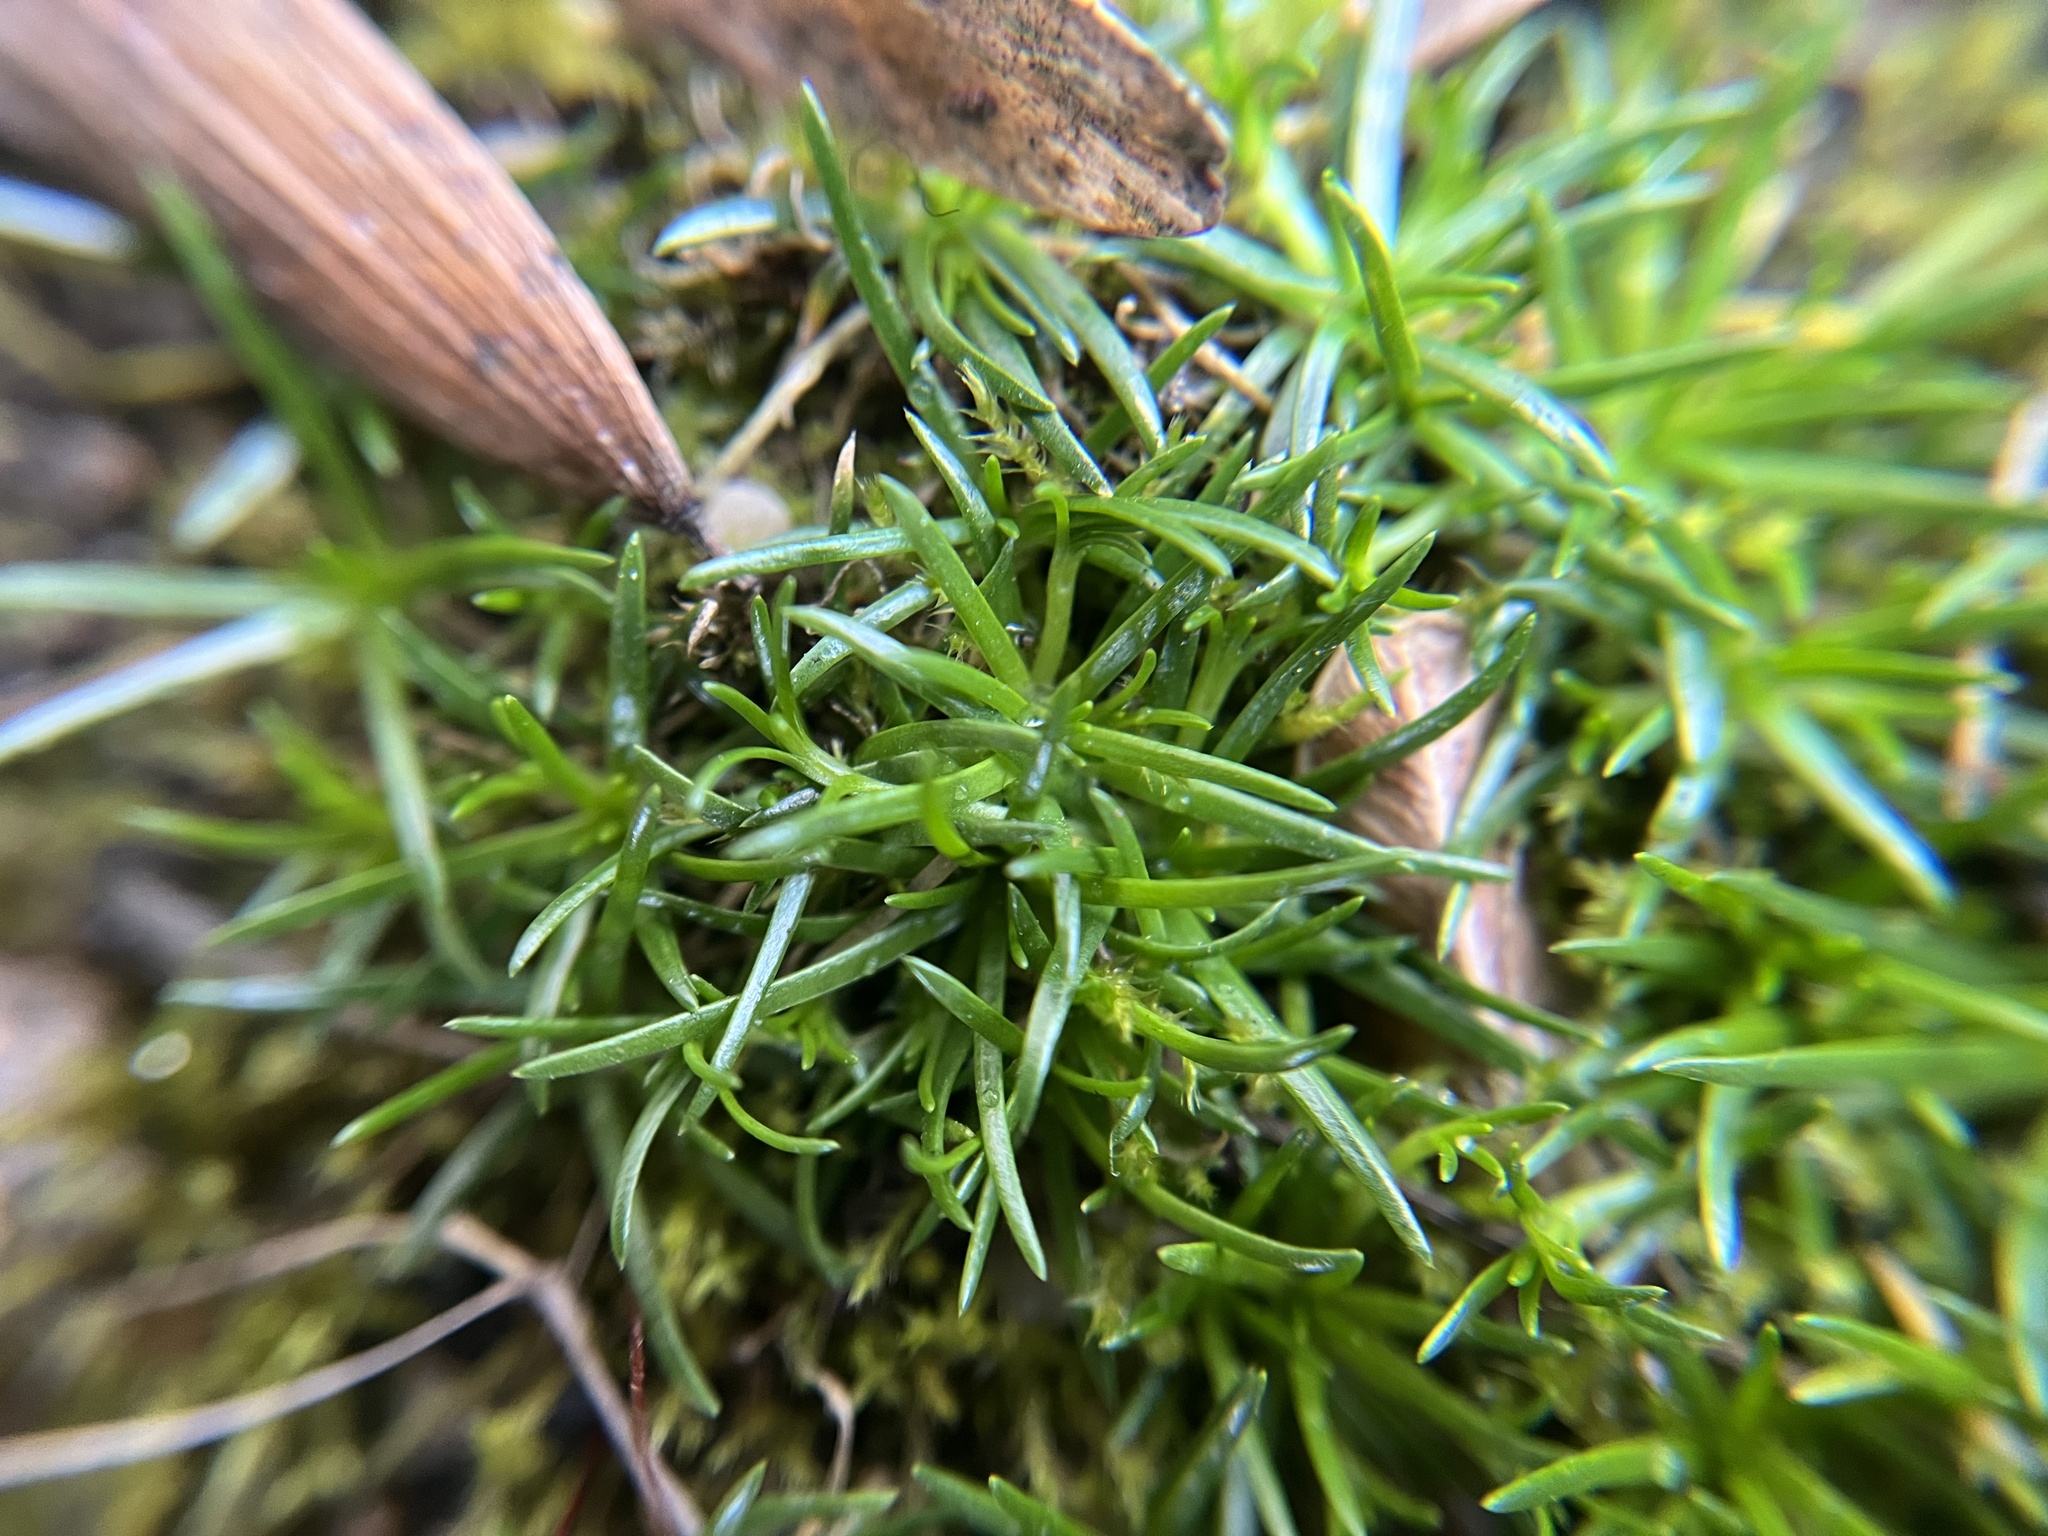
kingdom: Plantae
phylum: Tracheophyta
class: Magnoliopsida
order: Caryophyllales
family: Caryophyllaceae
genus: Sagina
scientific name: Sagina procumbens
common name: Procumbent pearlwort
